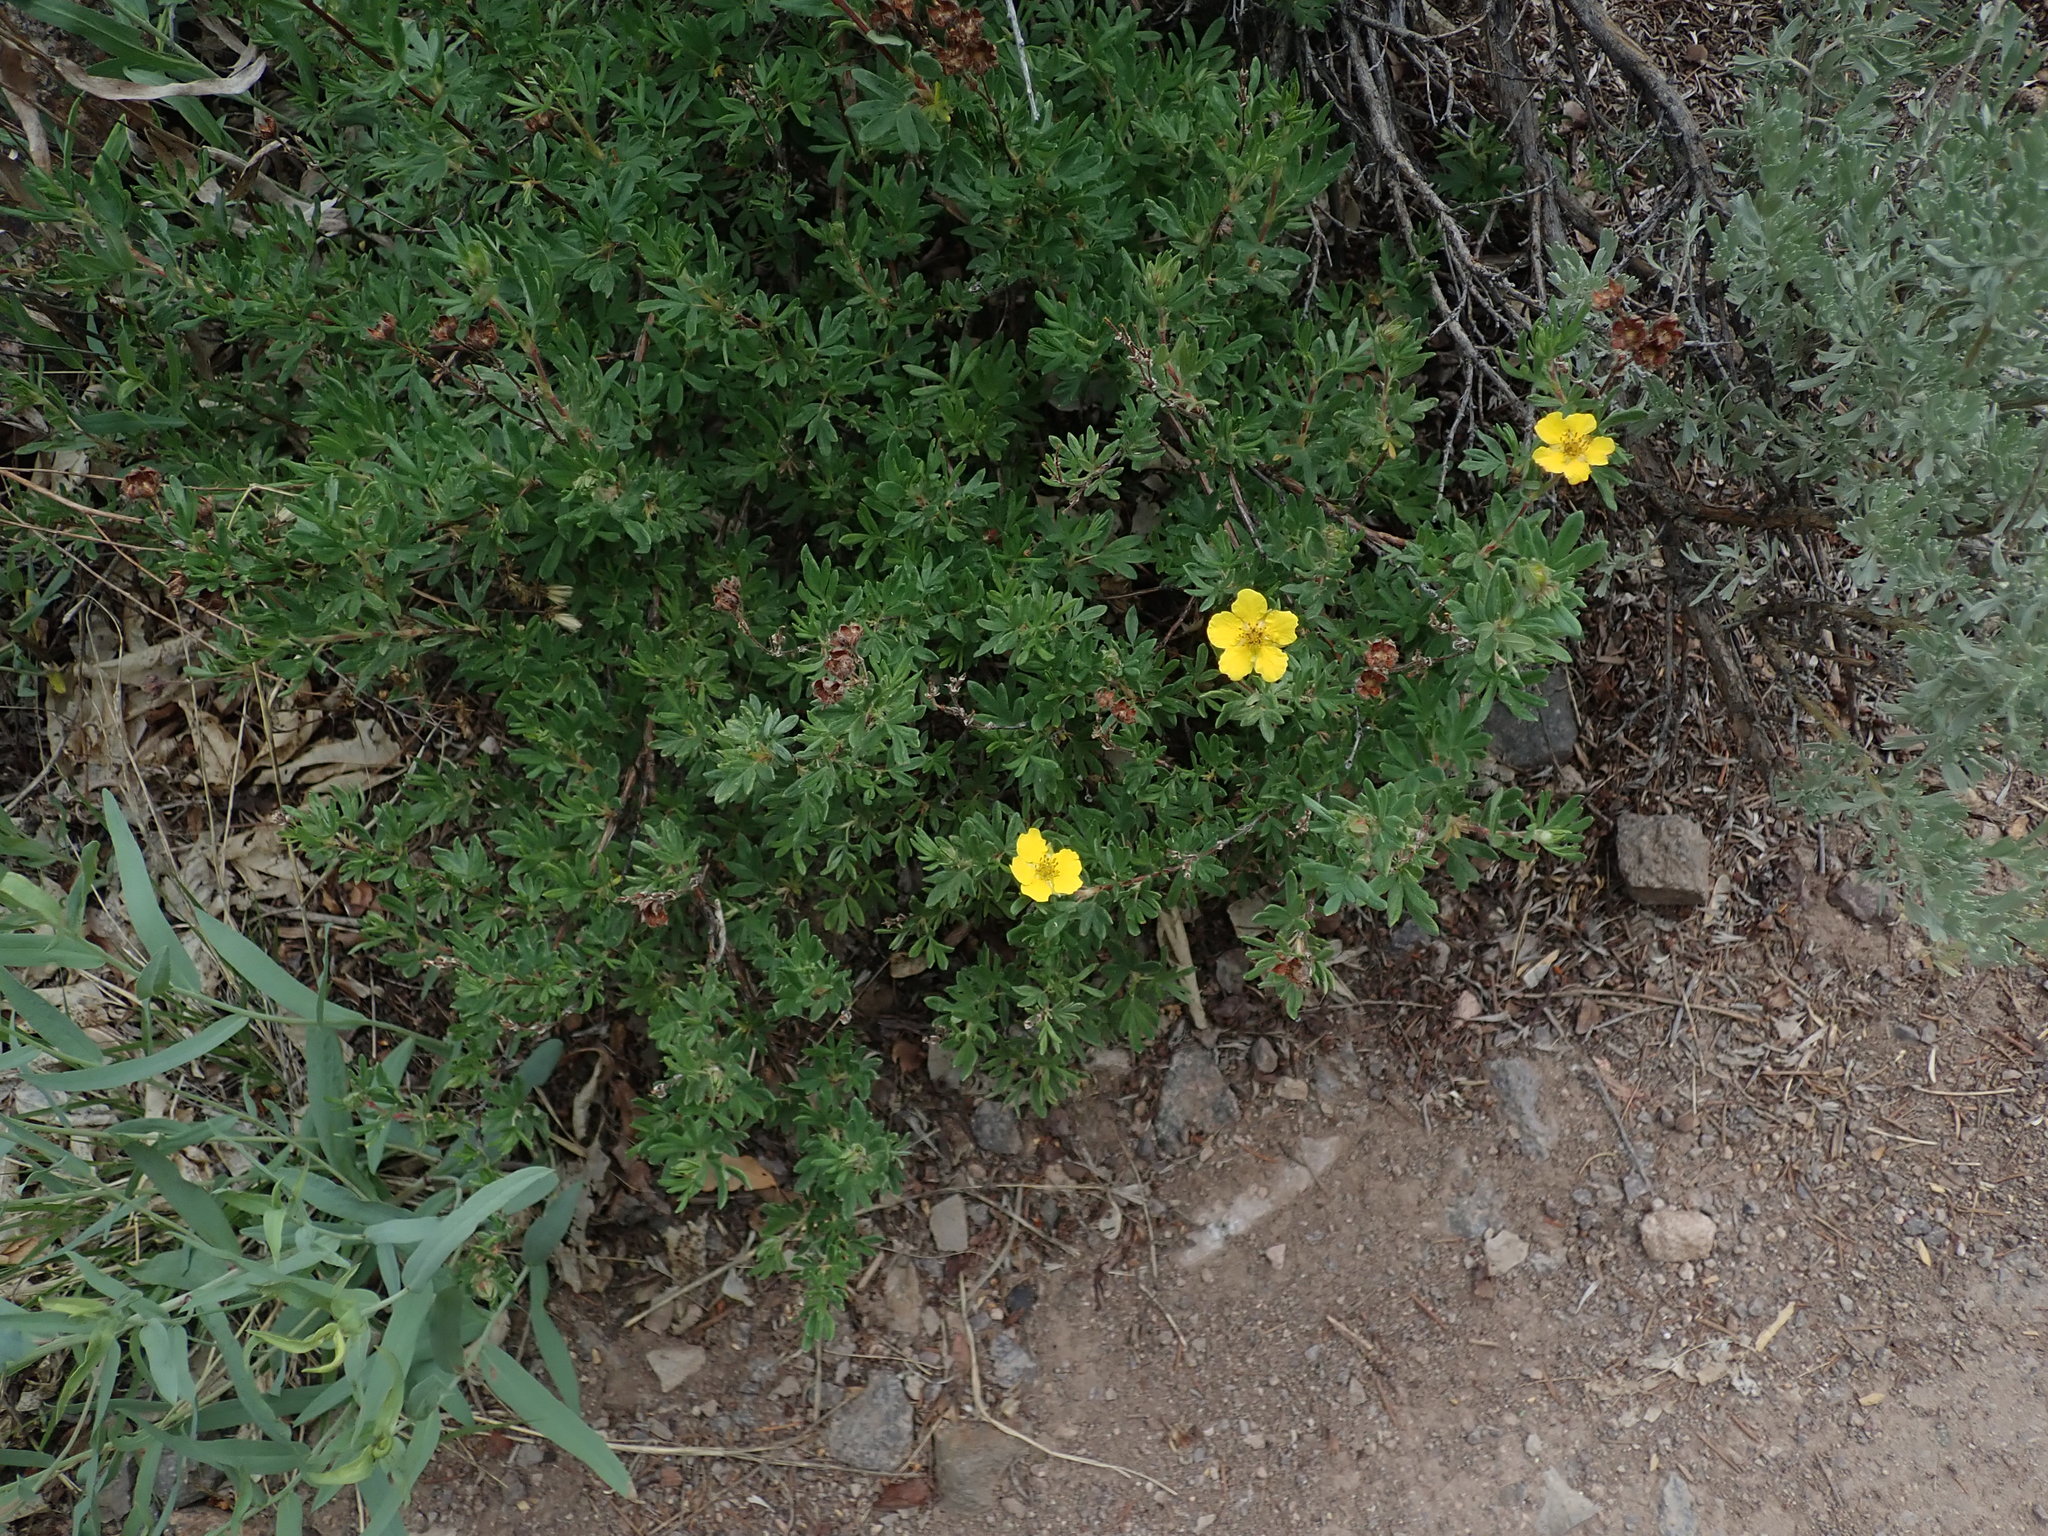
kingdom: Plantae
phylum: Tracheophyta
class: Magnoliopsida
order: Rosales
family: Rosaceae
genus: Dasiphora
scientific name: Dasiphora fruticosa
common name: Shrubby cinquefoil
